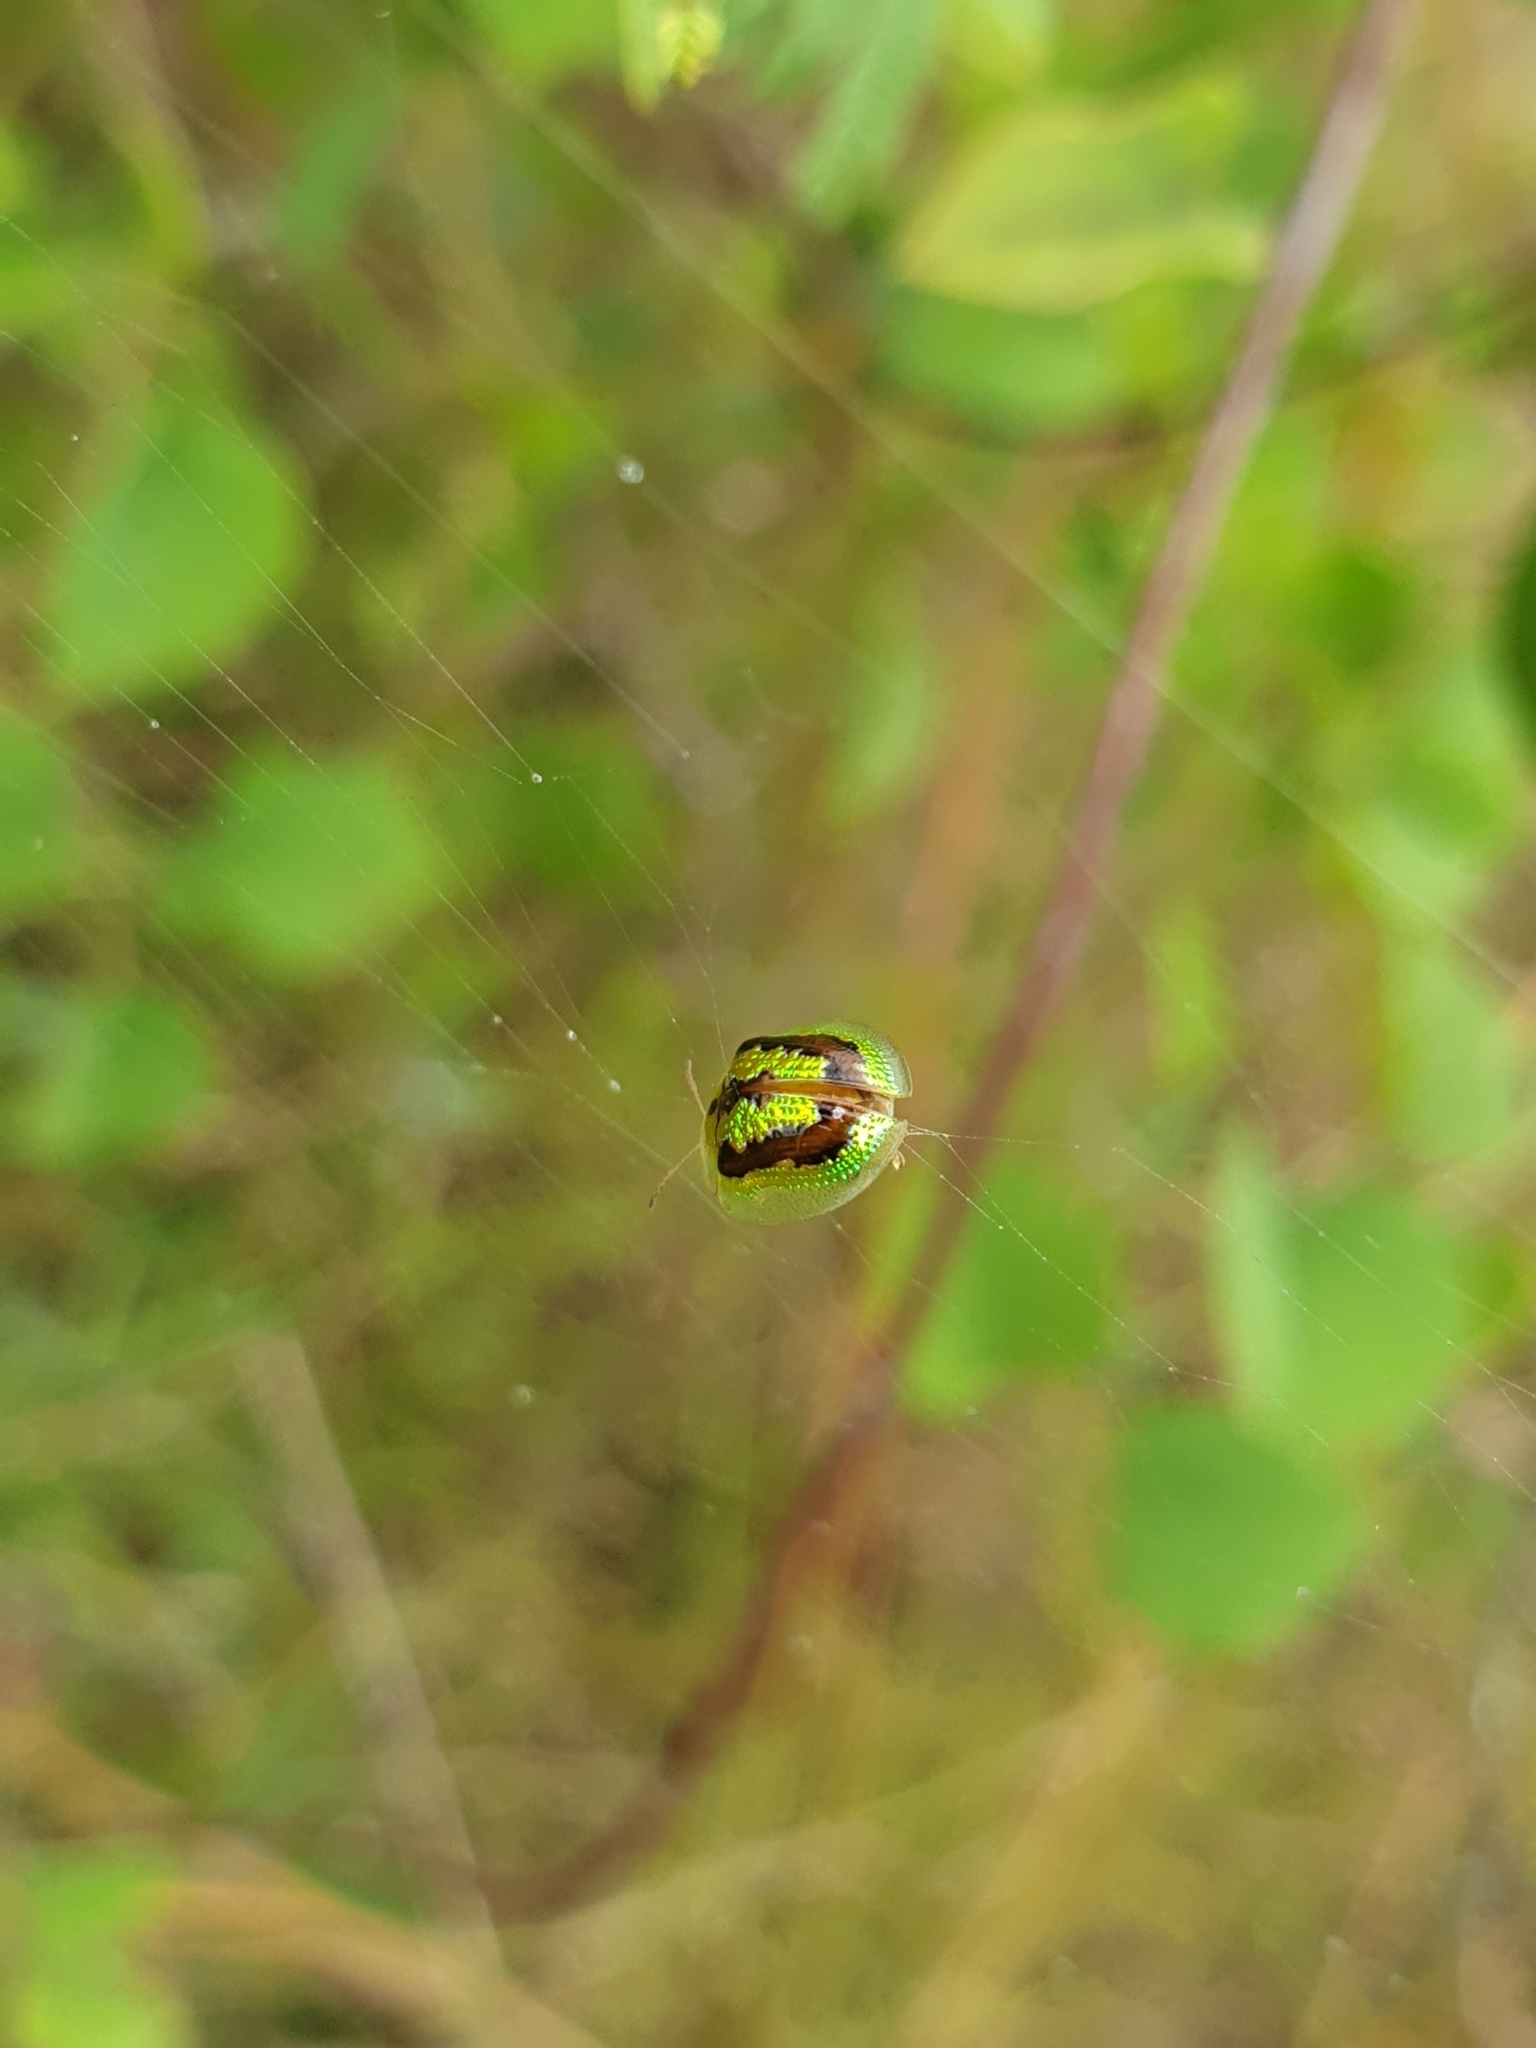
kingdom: Animalia
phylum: Arthropoda
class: Insecta
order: Coleoptera
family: Chrysomelidae
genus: Cassida
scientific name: Cassida circumdata
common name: Tortoise beetle
